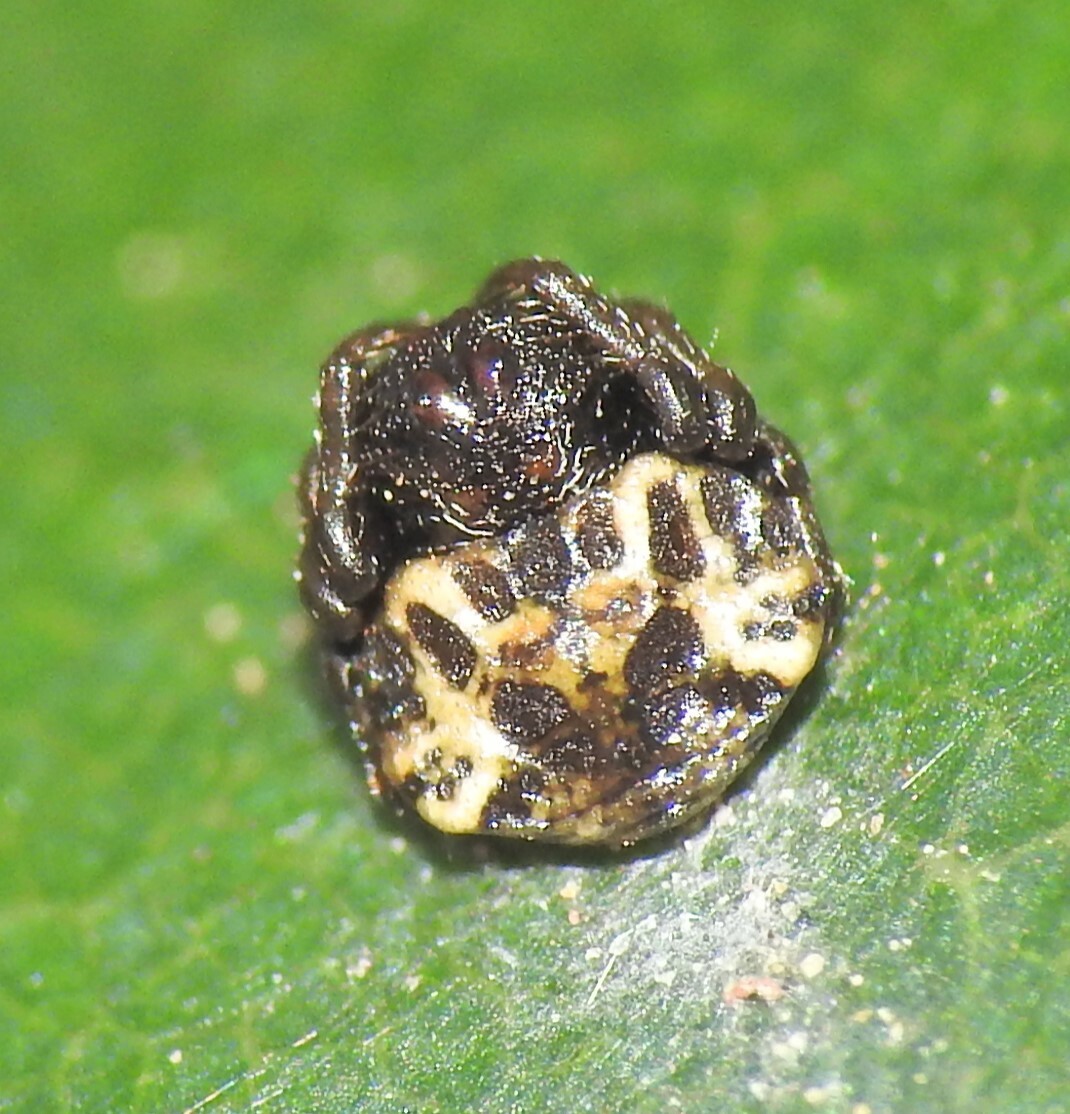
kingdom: Animalia
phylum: Arthropoda
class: Arachnida
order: Araneae
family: Arkyidae
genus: Arkys
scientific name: Arkys curtulus
